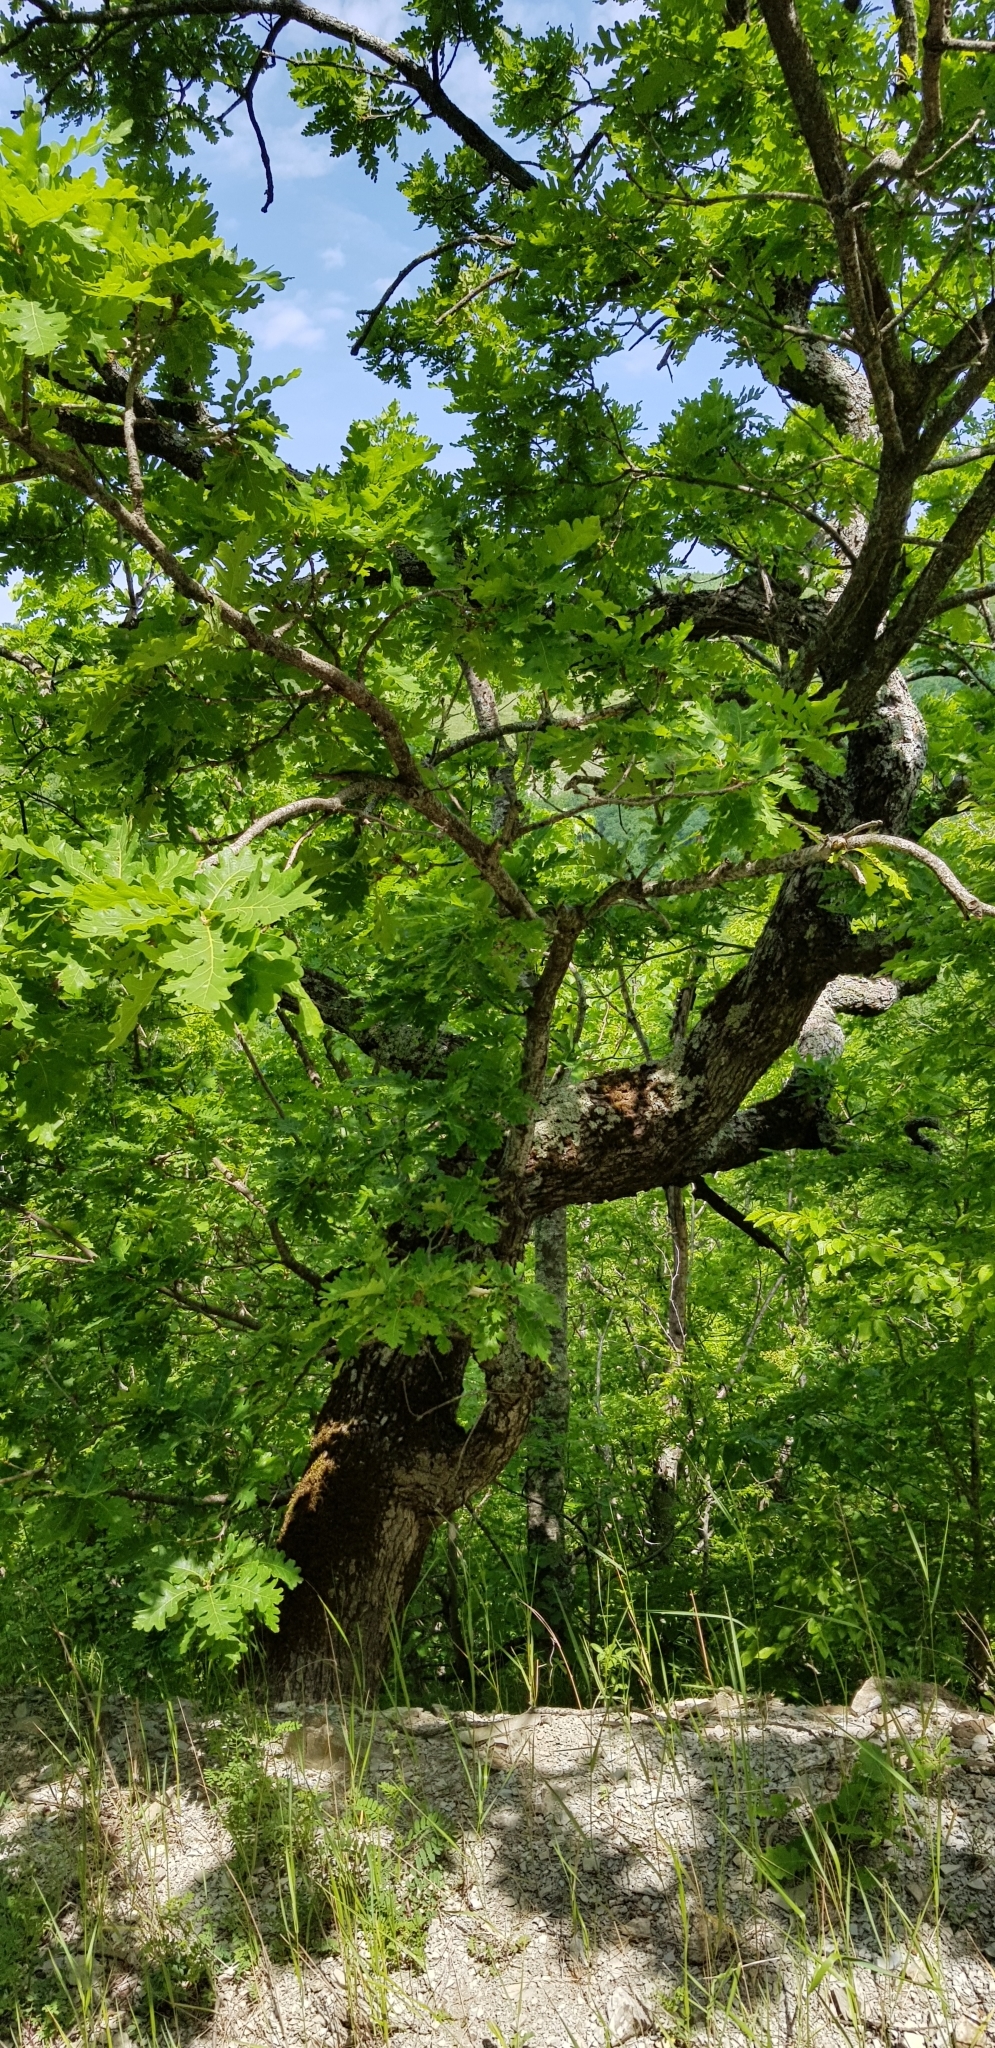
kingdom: Plantae
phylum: Tracheophyta
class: Magnoliopsida
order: Fagales
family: Fagaceae
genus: Quercus
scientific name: Quercus
